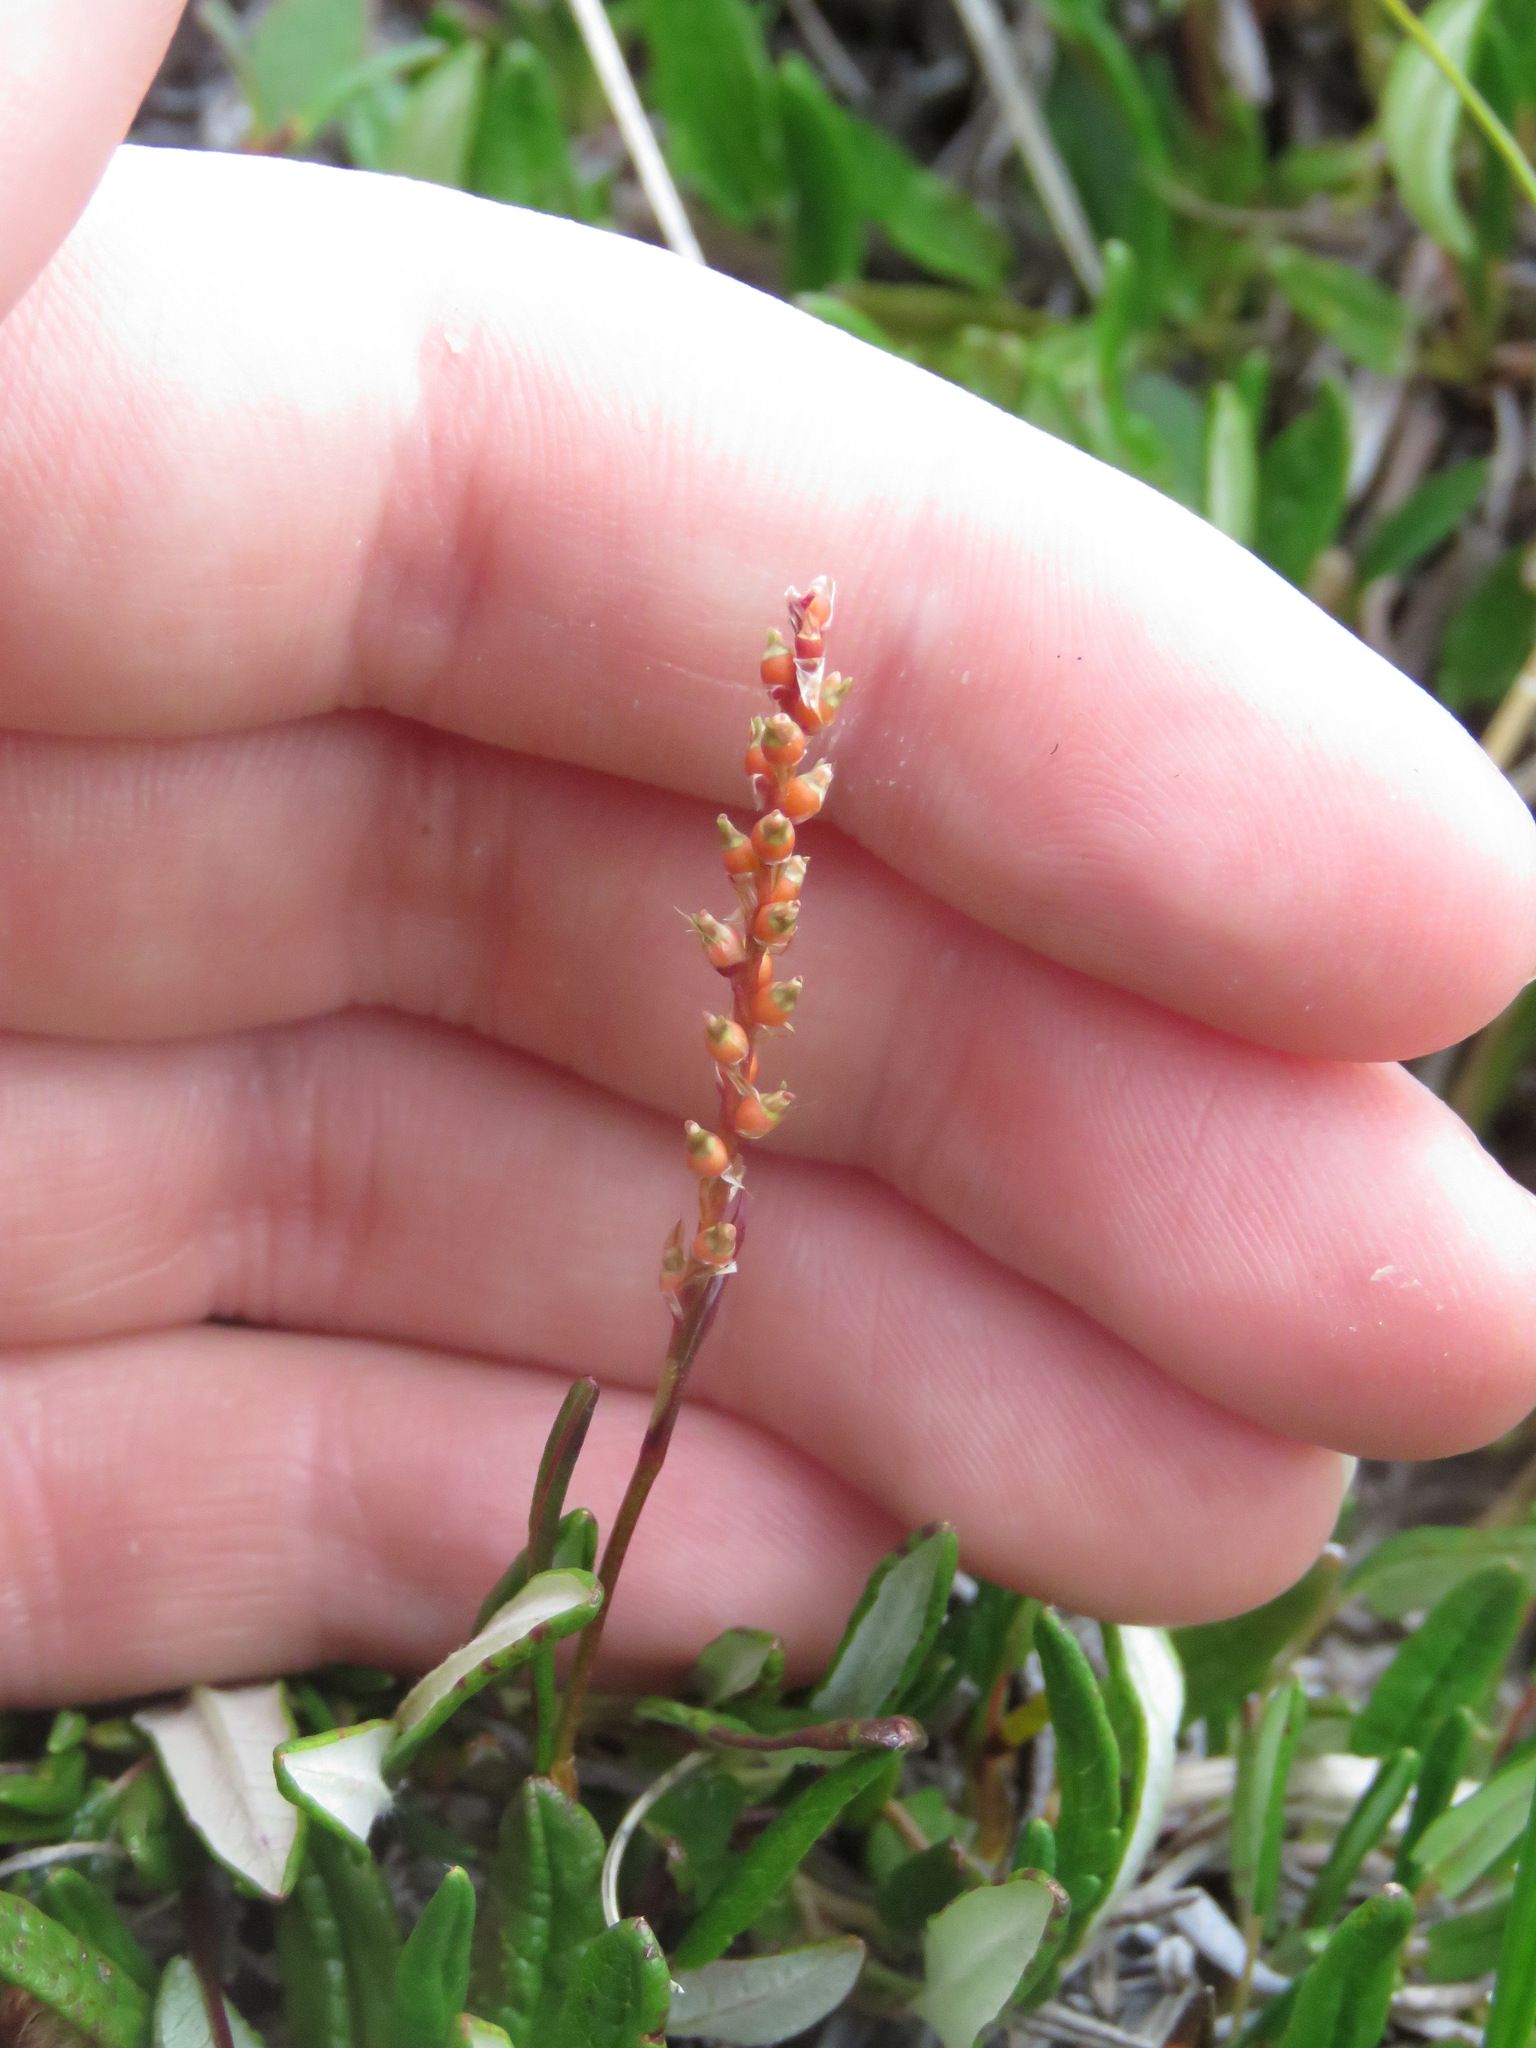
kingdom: Plantae
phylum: Tracheophyta
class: Magnoliopsida
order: Caryophyllales
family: Polygonaceae
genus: Bistorta
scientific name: Bistorta vivipara
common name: Alpine bistort
